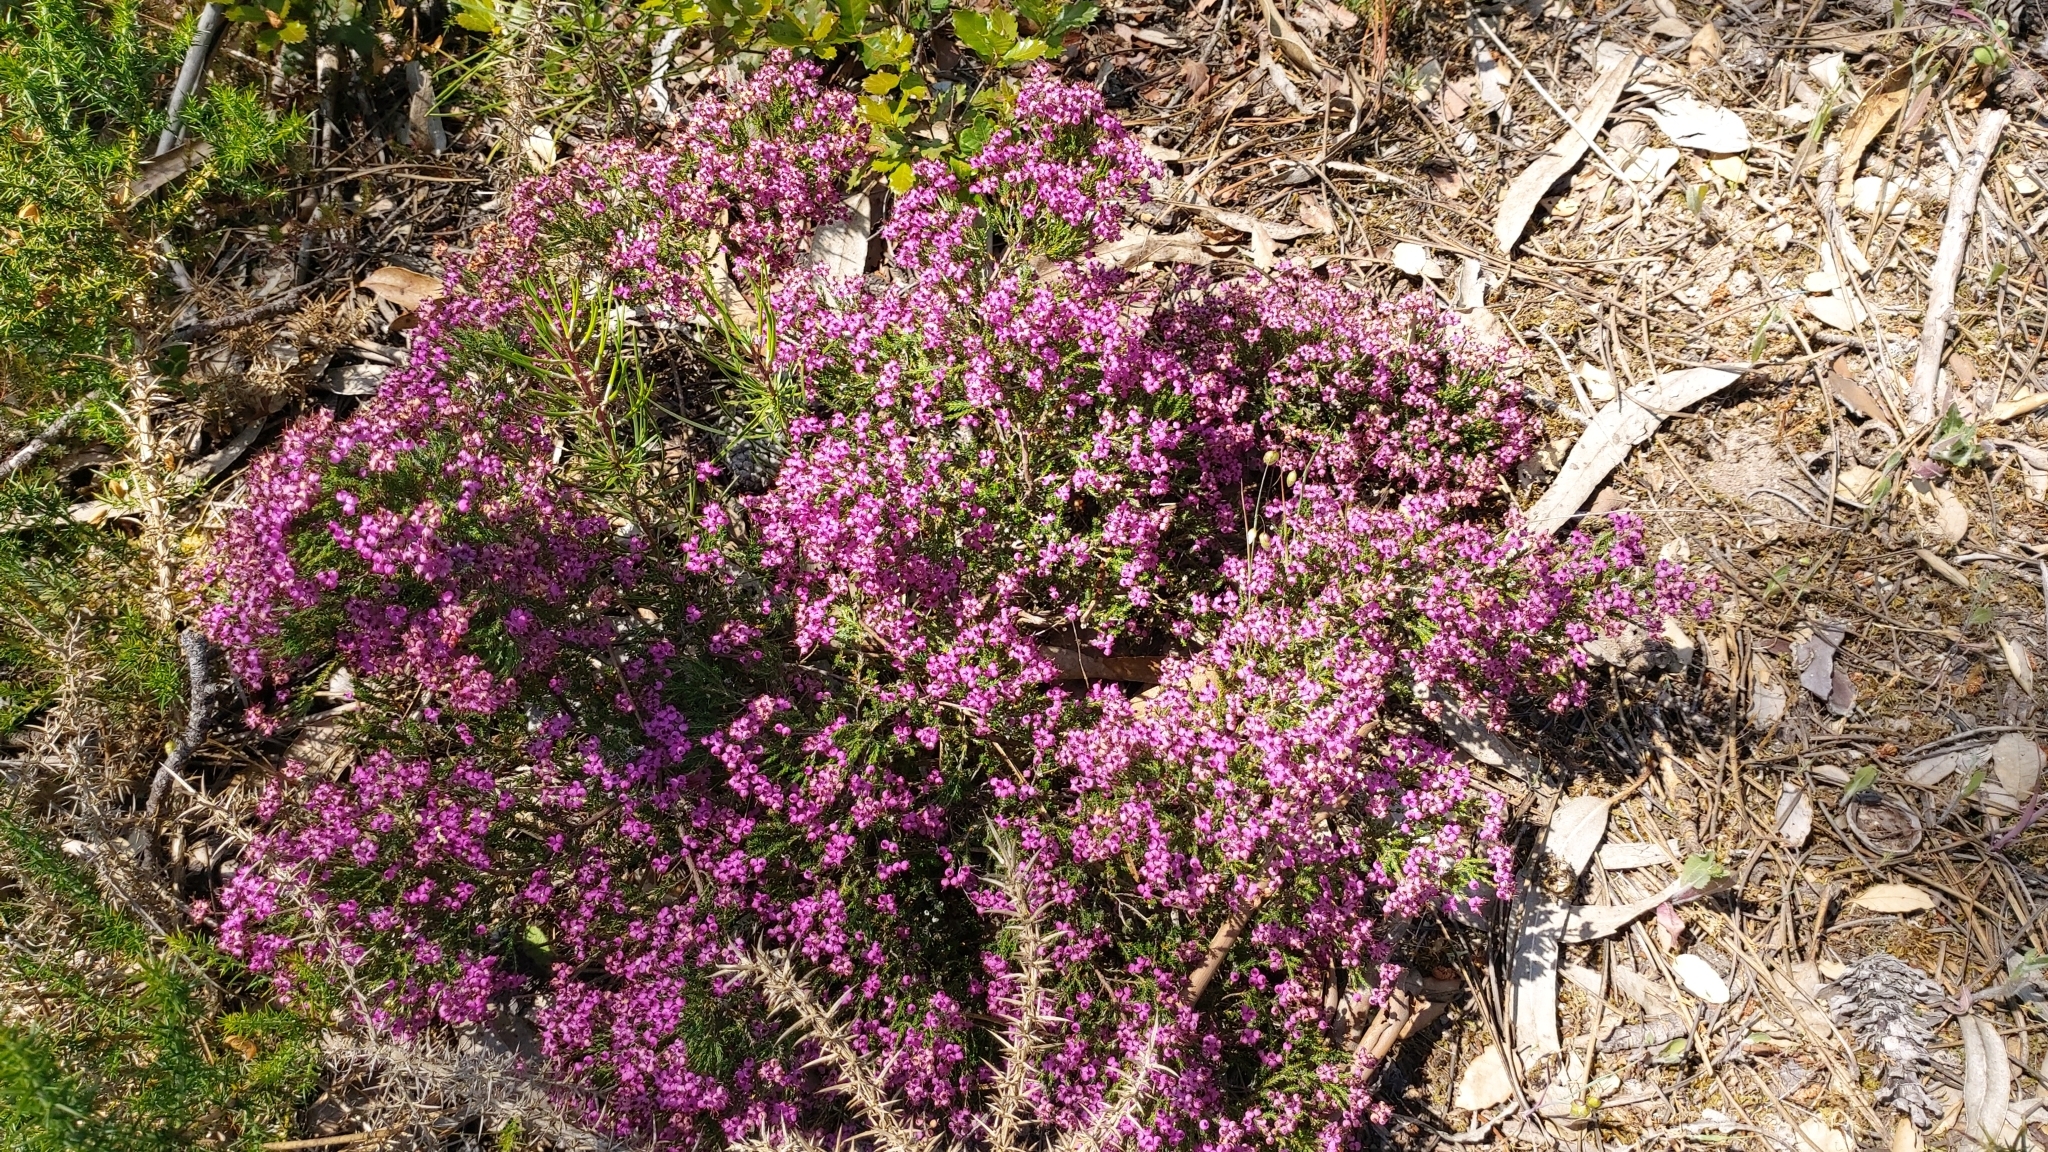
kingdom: Plantae
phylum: Tracheophyta
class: Magnoliopsida
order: Ericales
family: Ericaceae
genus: Erica
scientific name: Erica umbellata
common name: Dwarf spanish heath
